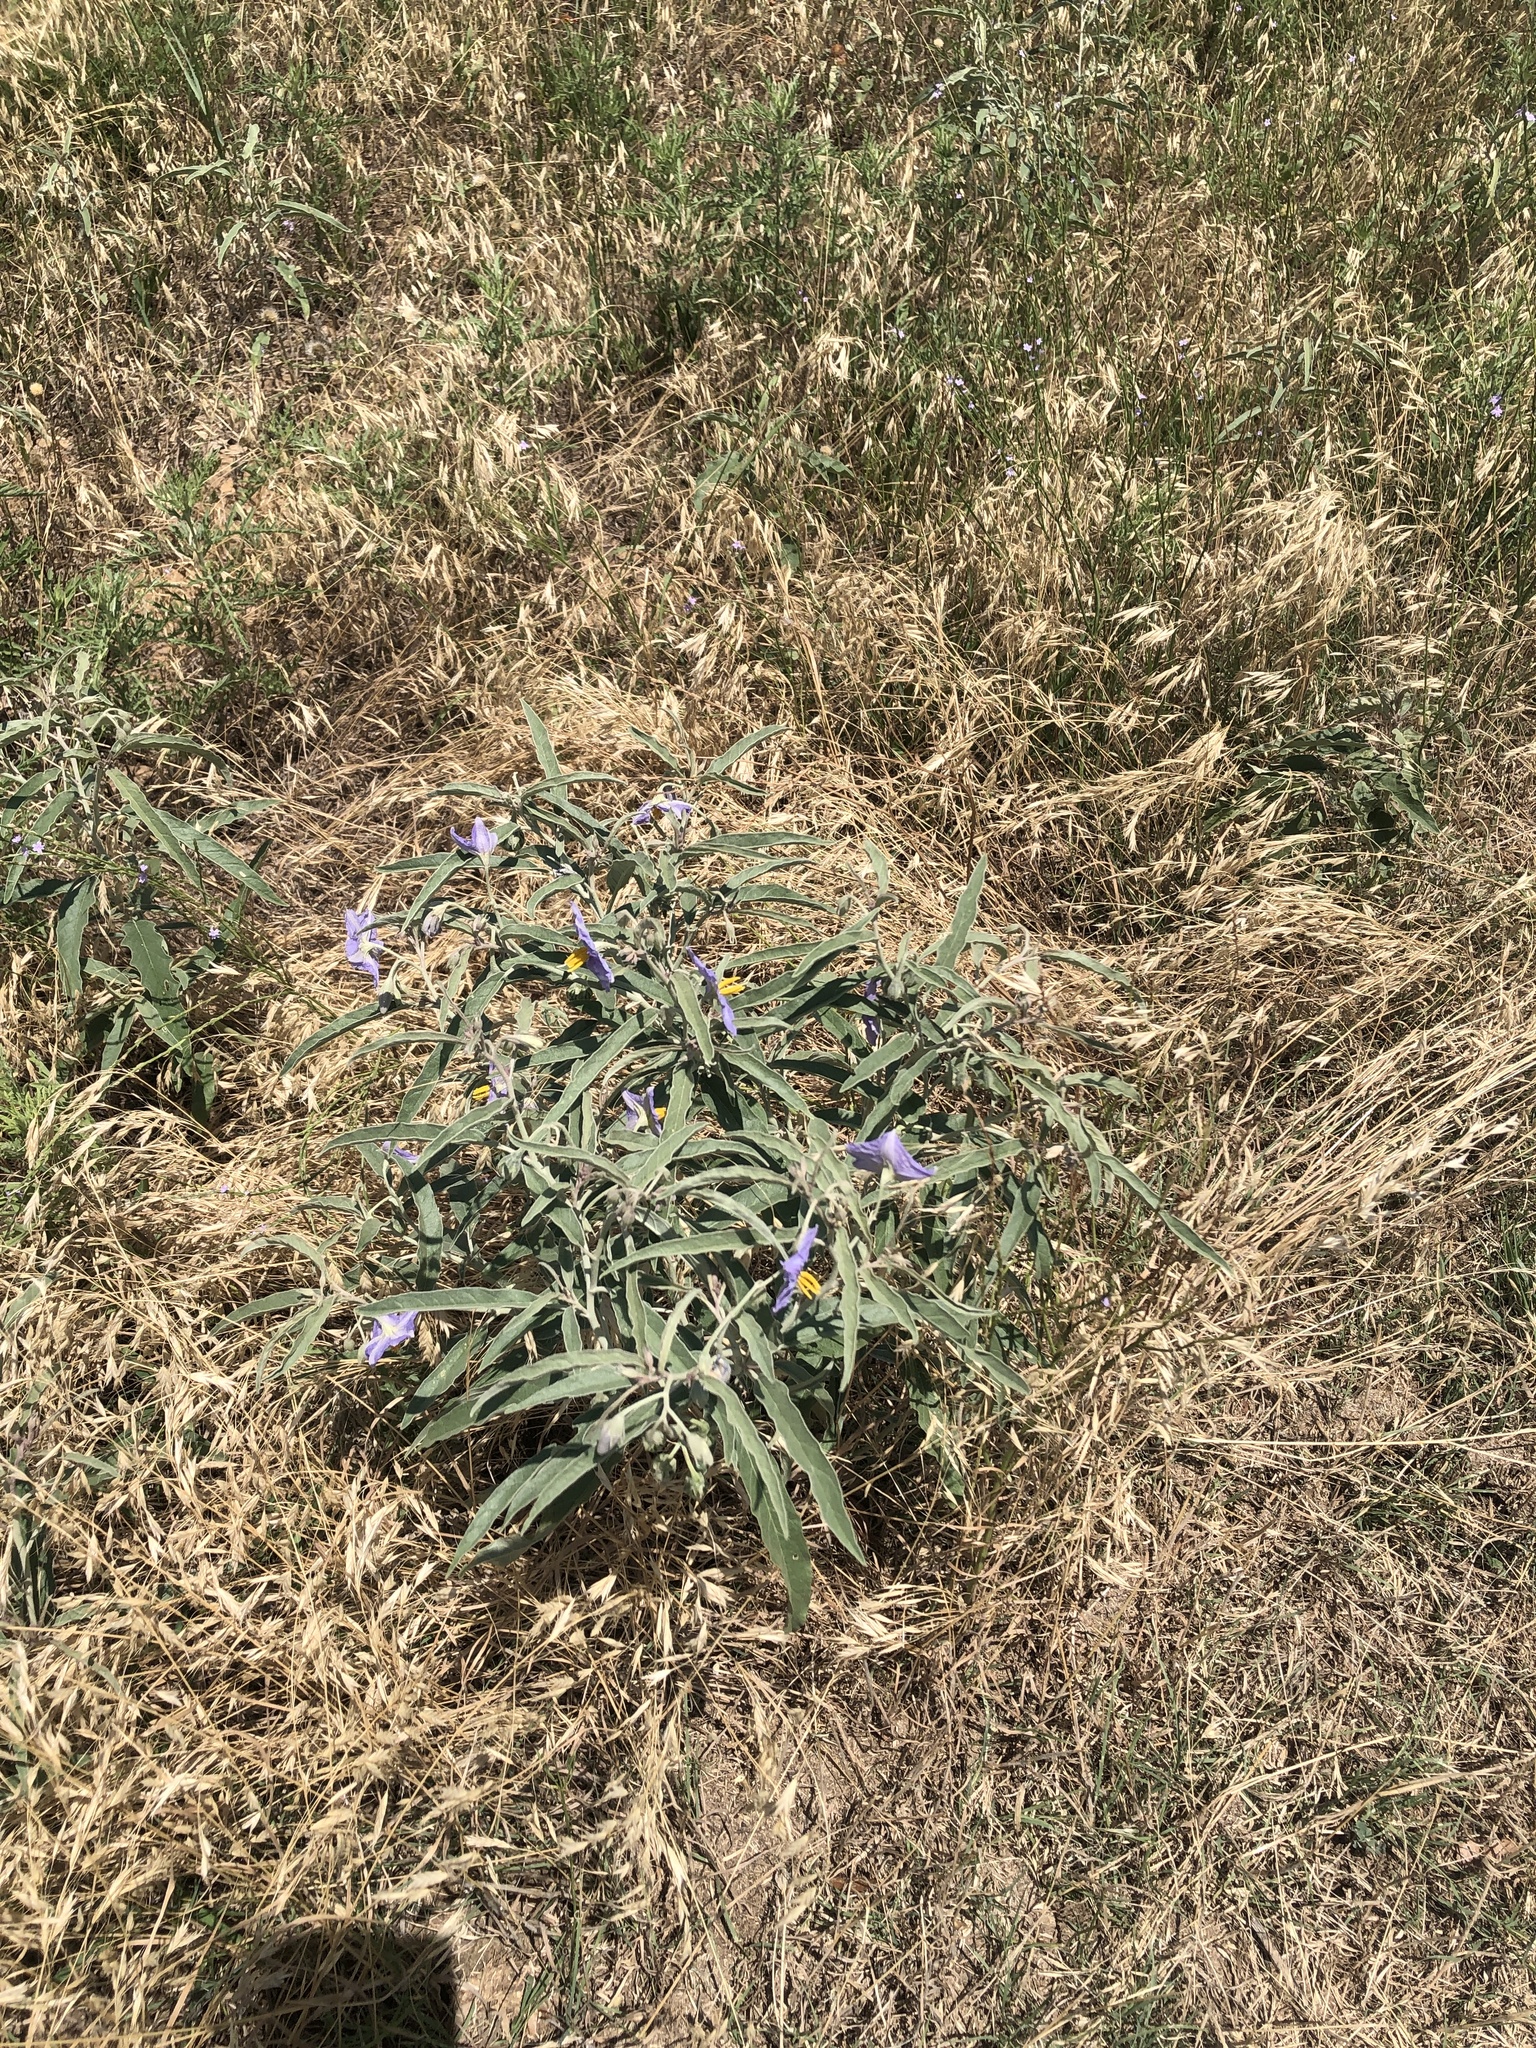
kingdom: Plantae
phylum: Tracheophyta
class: Magnoliopsida
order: Solanales
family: Solanaceae
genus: Solanum
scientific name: Solanum elaeagnifolium
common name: Silverleaf nightshade
